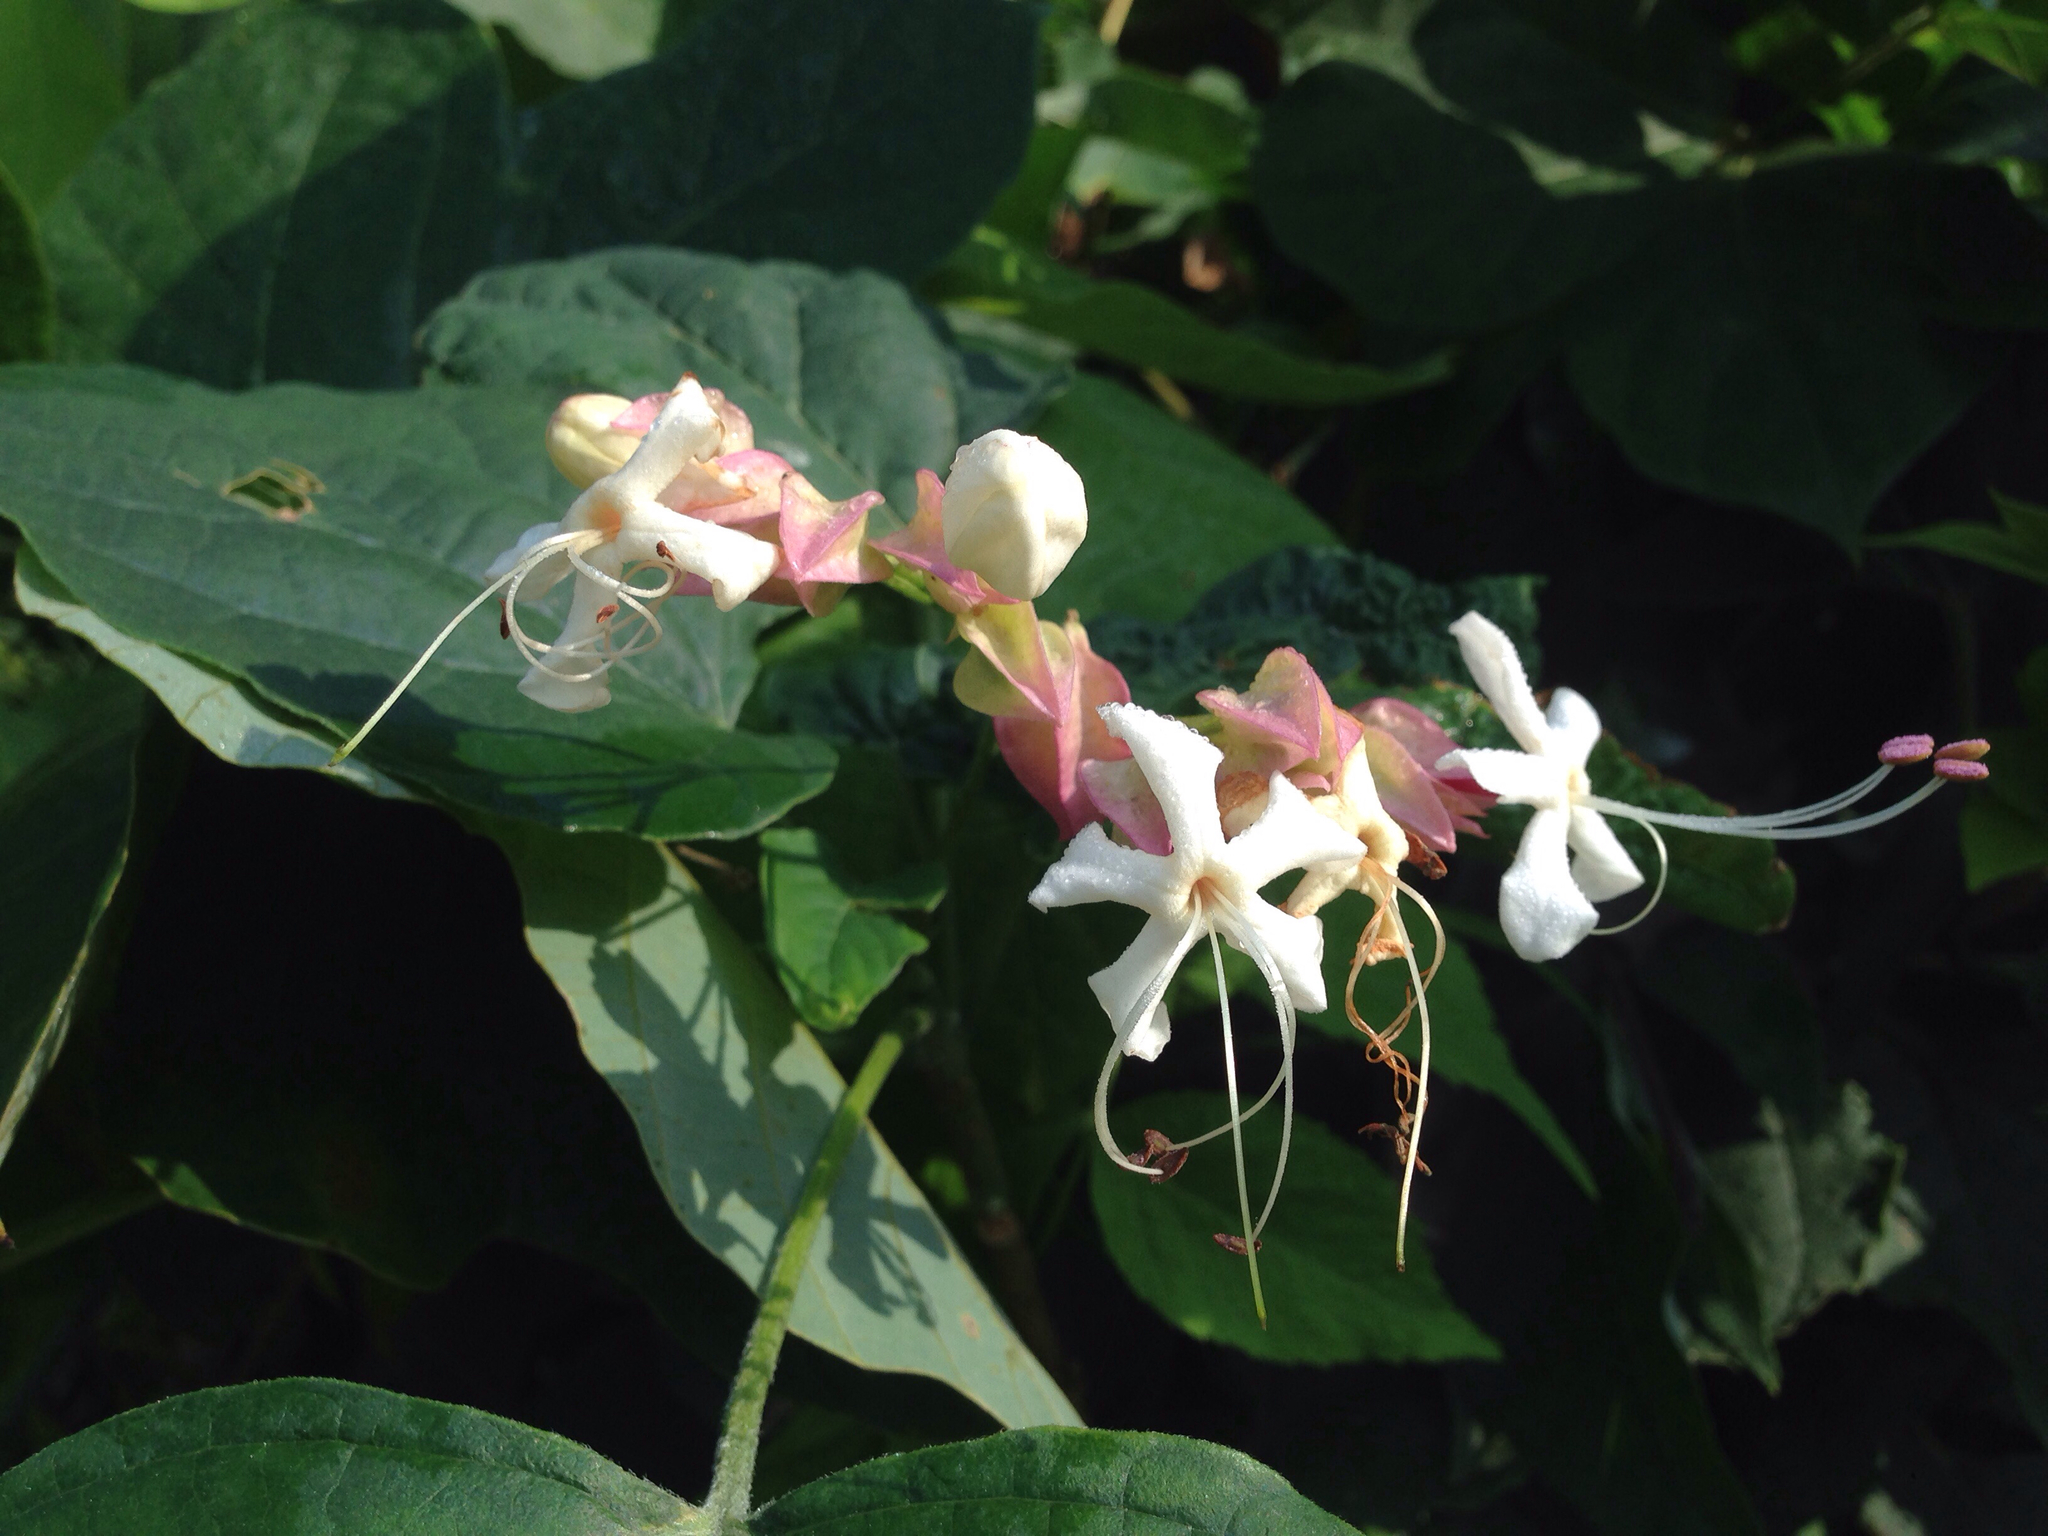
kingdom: Plantae
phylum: Tracheophyta
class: Magnoliopsida
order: Lamiales
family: Lamiaceae
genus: Clerodendrum
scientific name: Clerodendrum trichotomum
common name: Harlequin glorybower
